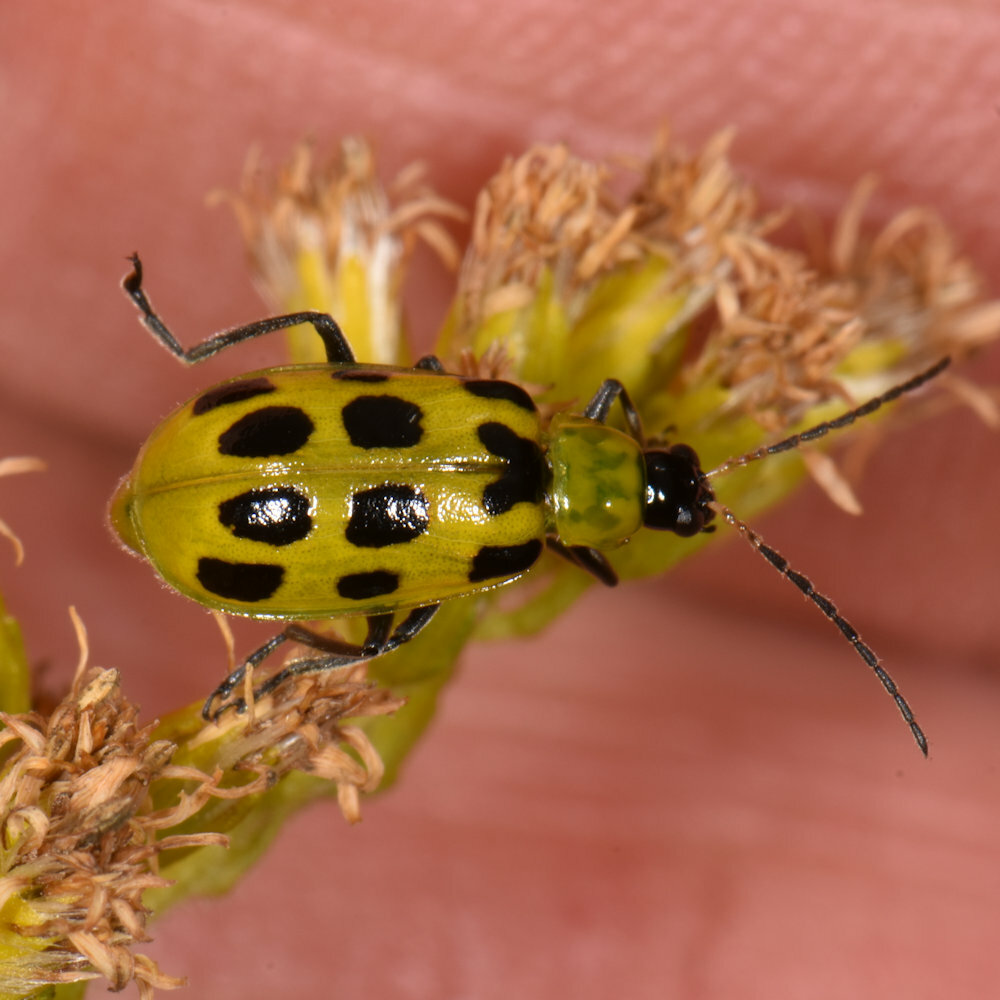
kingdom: Animalia
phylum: Arthropoda
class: Insecta
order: Coleoptera
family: Chrysomelidae
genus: Diabrotica
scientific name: Diabrotica undecimpunctata
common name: Spotted cucumber beetle
